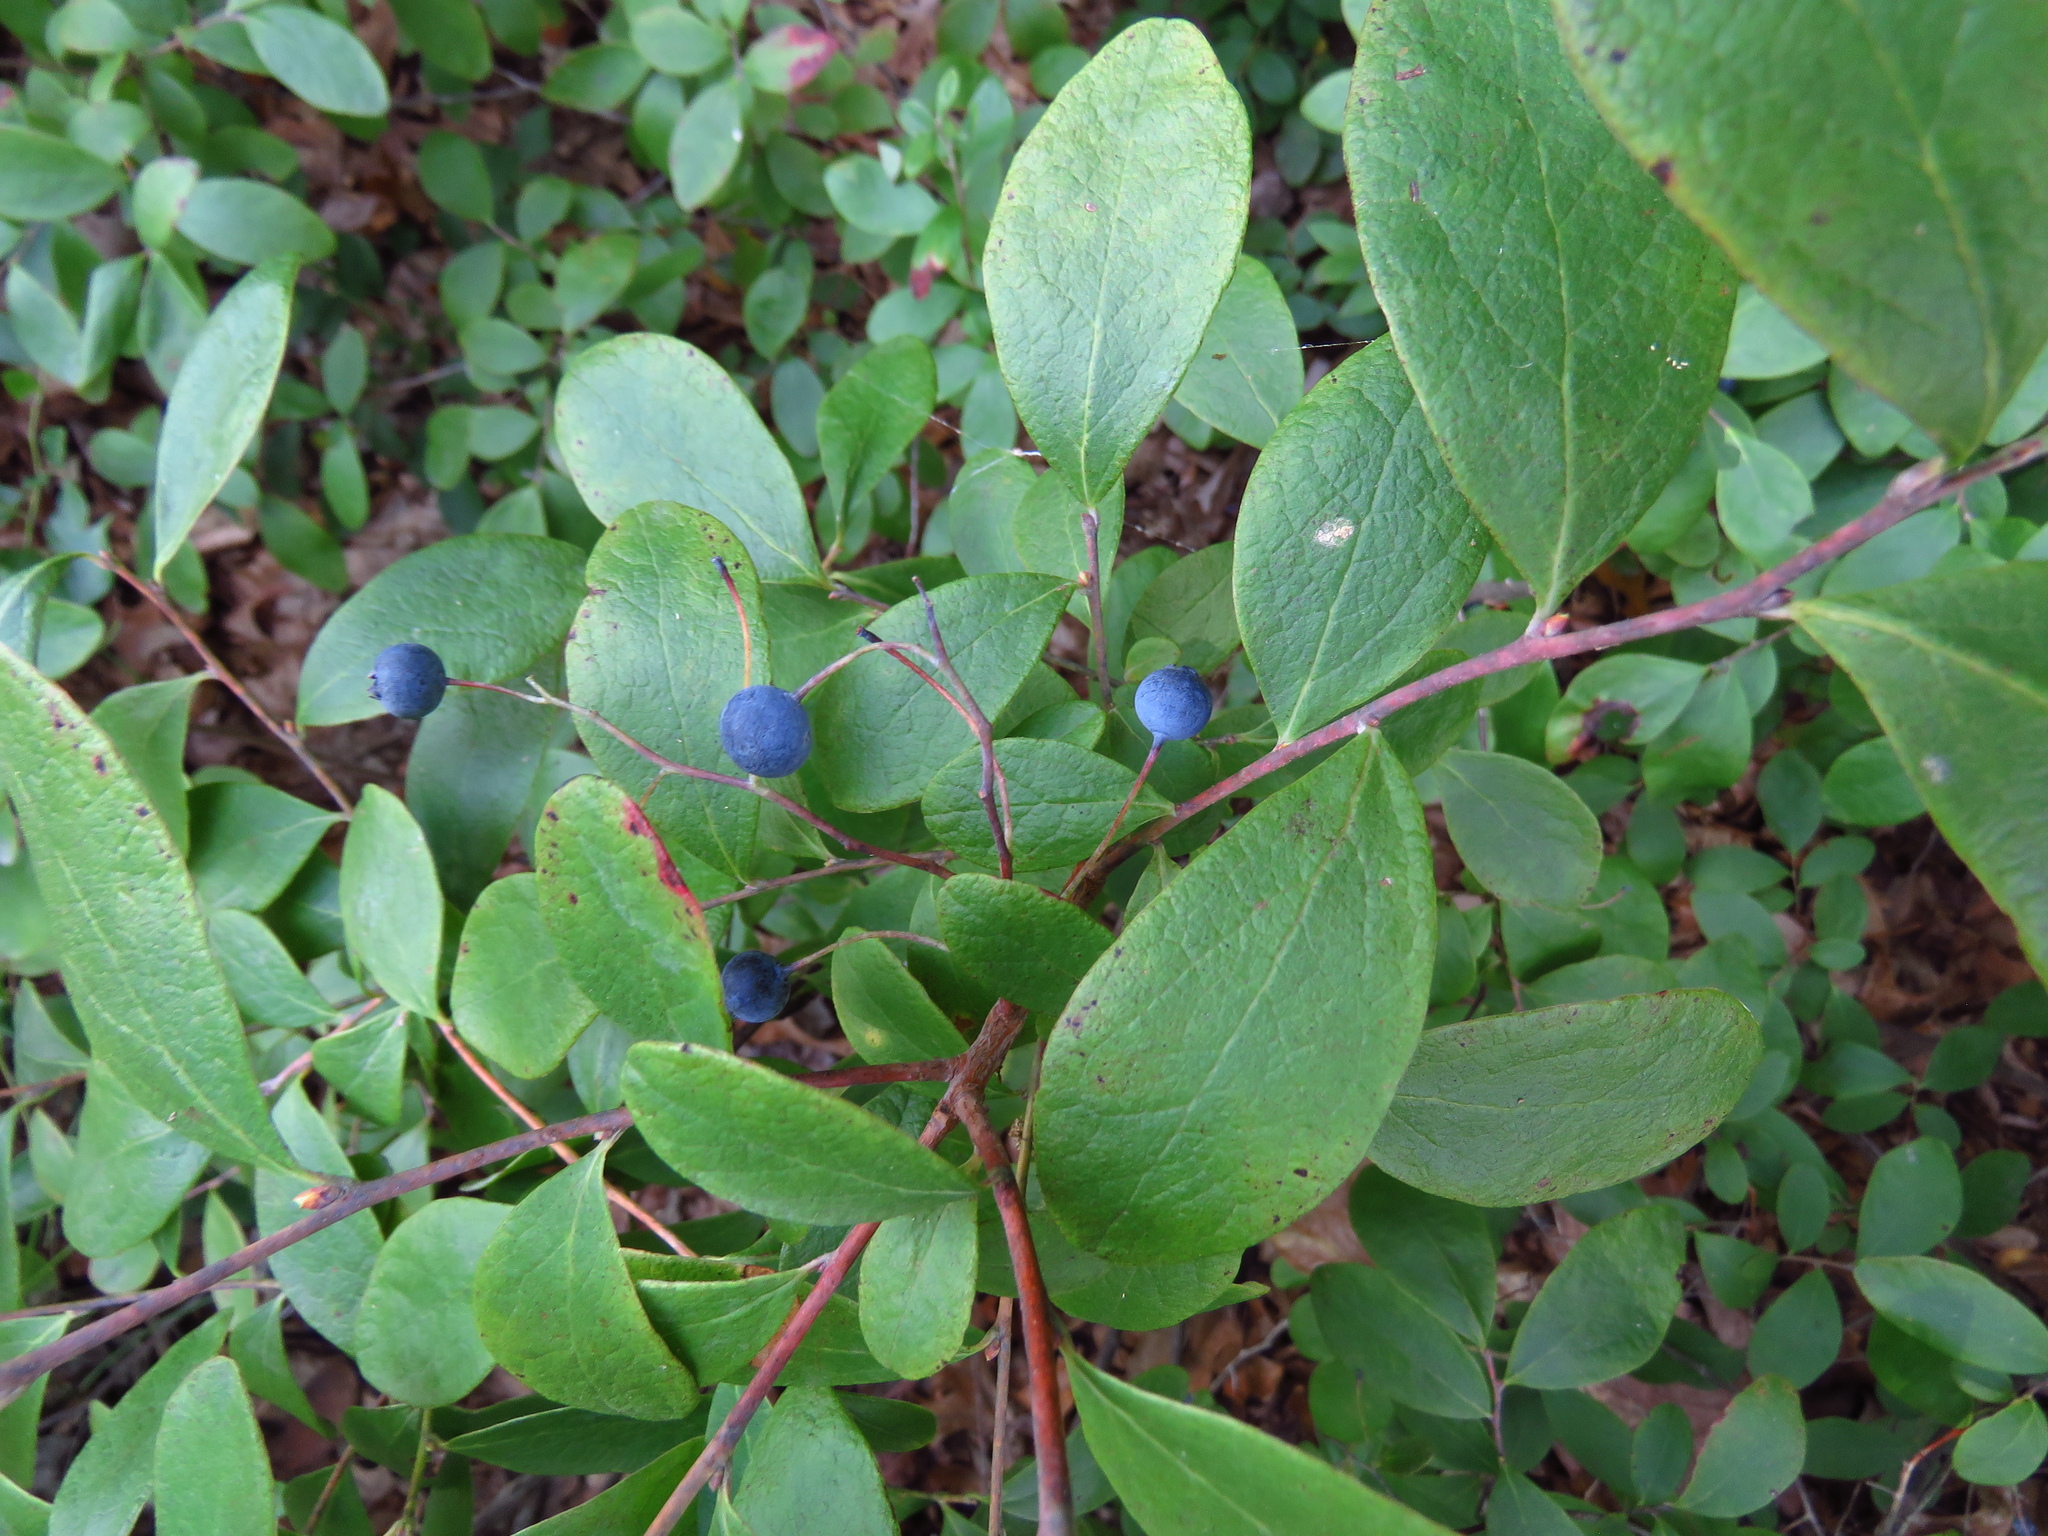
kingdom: Plantae
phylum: Tracheophyta
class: Magnoliopsida
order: Ericales
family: Ericaceae
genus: Gaylussacia
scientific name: Gaylussacia frondosa
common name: Dangleberry
